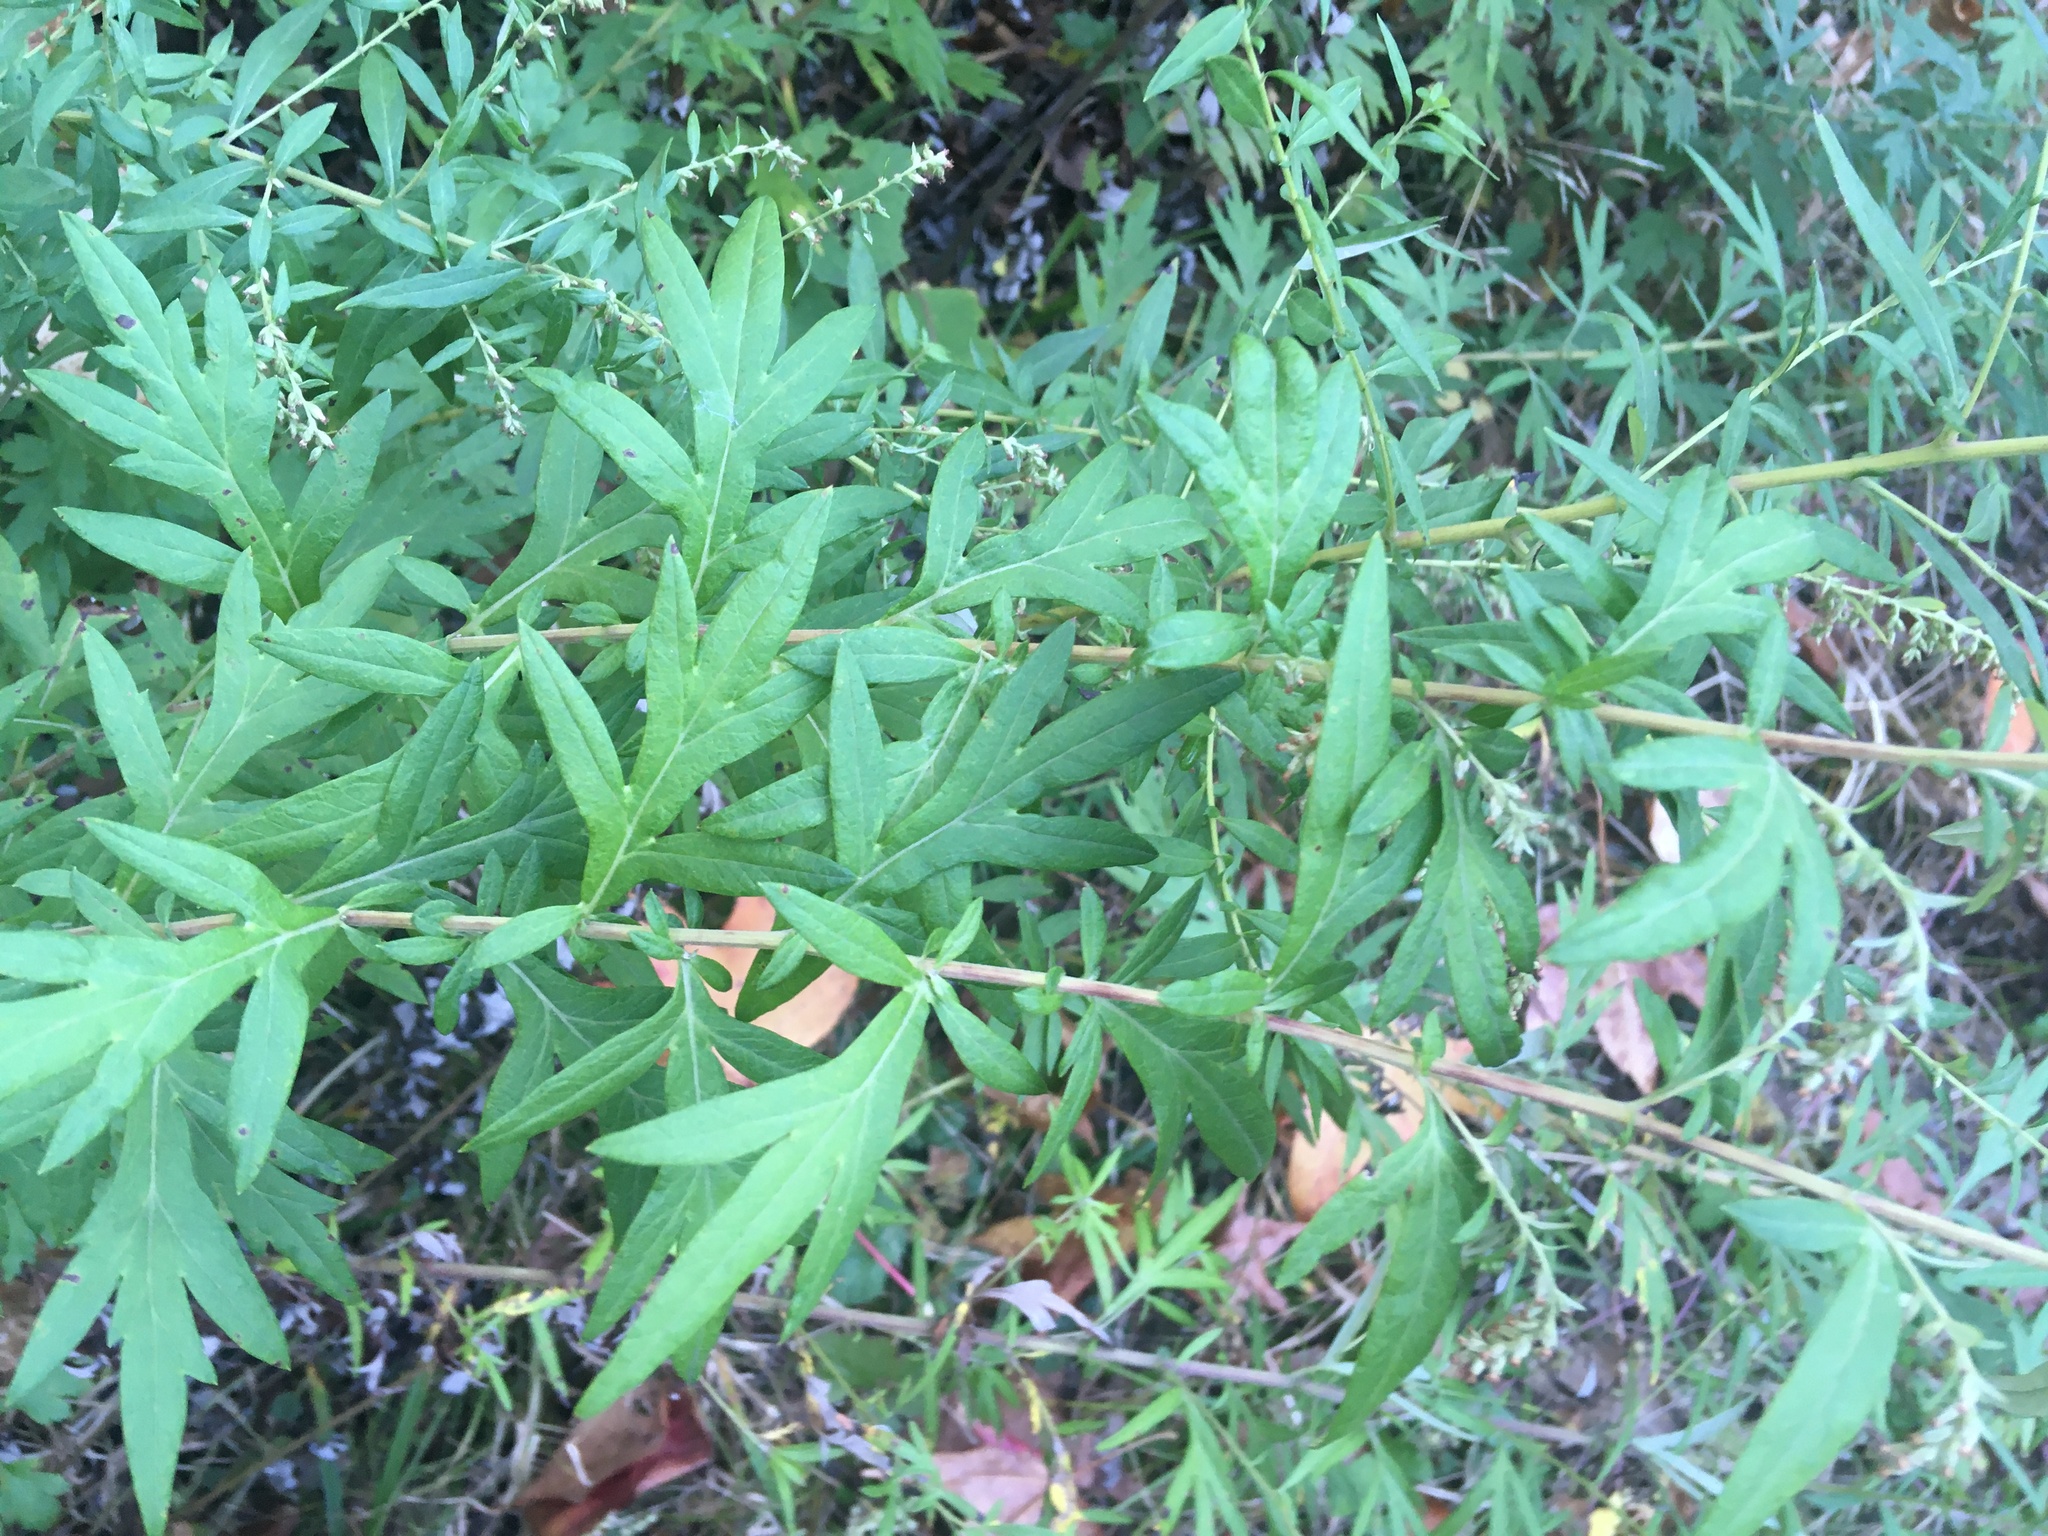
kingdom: Plantae
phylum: Tracheophyta
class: Magnoliopsida
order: Asterales
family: Asteraceae
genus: Artemisia
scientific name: Artemisia vulgaris
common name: Mugwort
